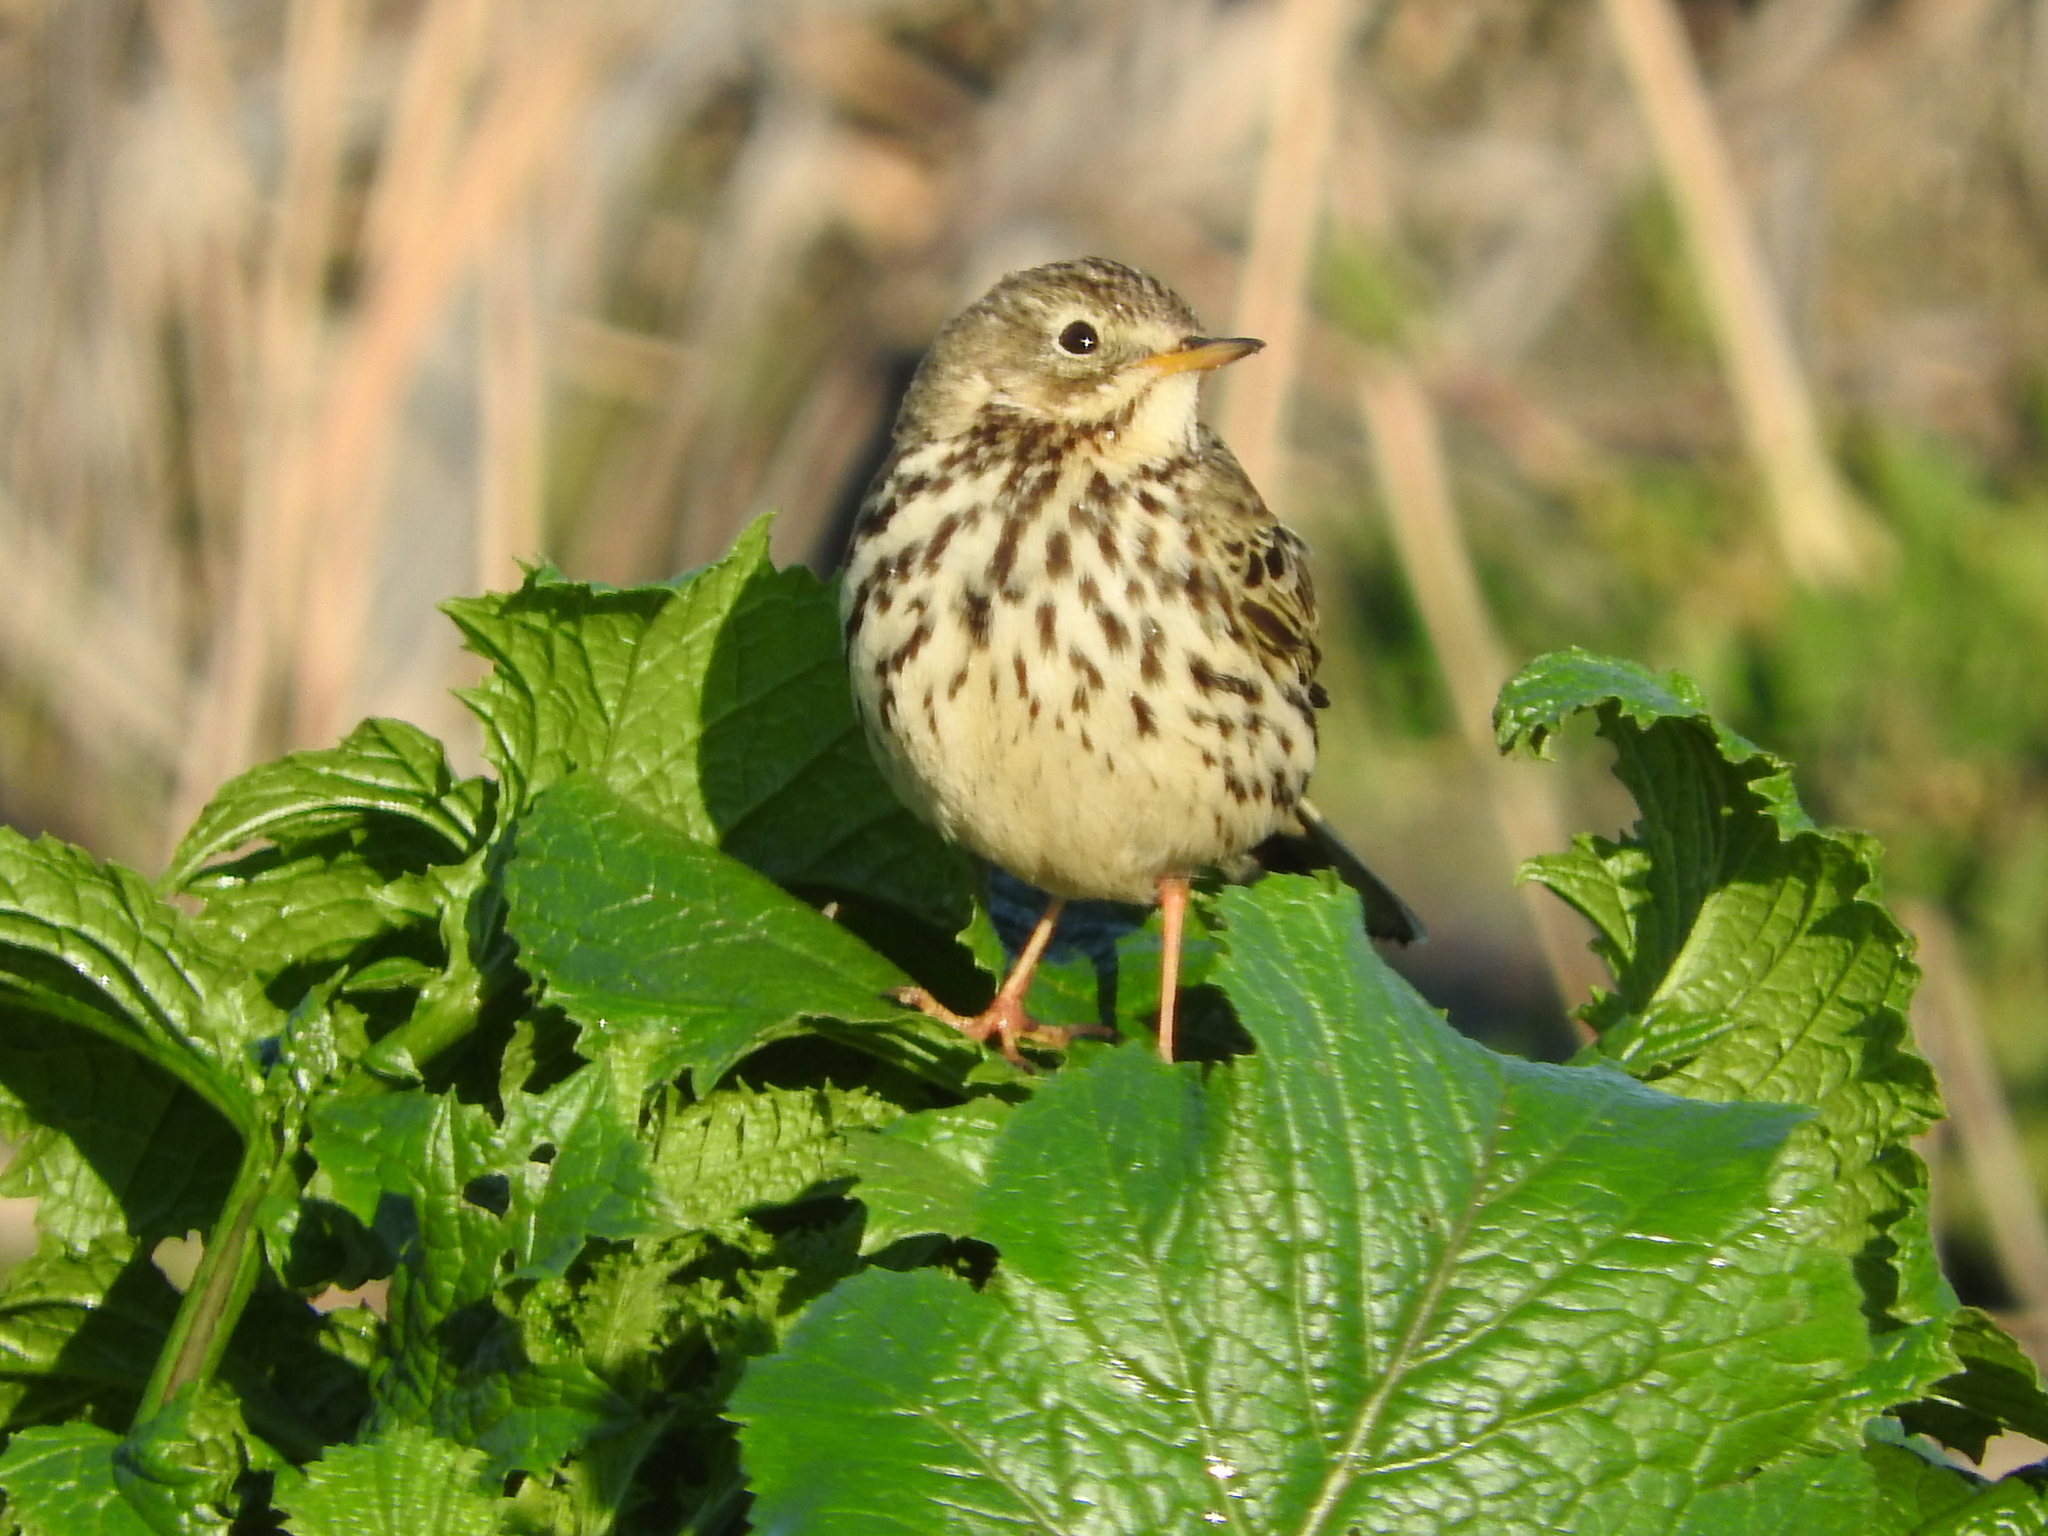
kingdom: Animalia
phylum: Chordata
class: Aves
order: Passeriformes
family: Motacillidae
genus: Anthus
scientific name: Anthus pratensis
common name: Meadow pipit
